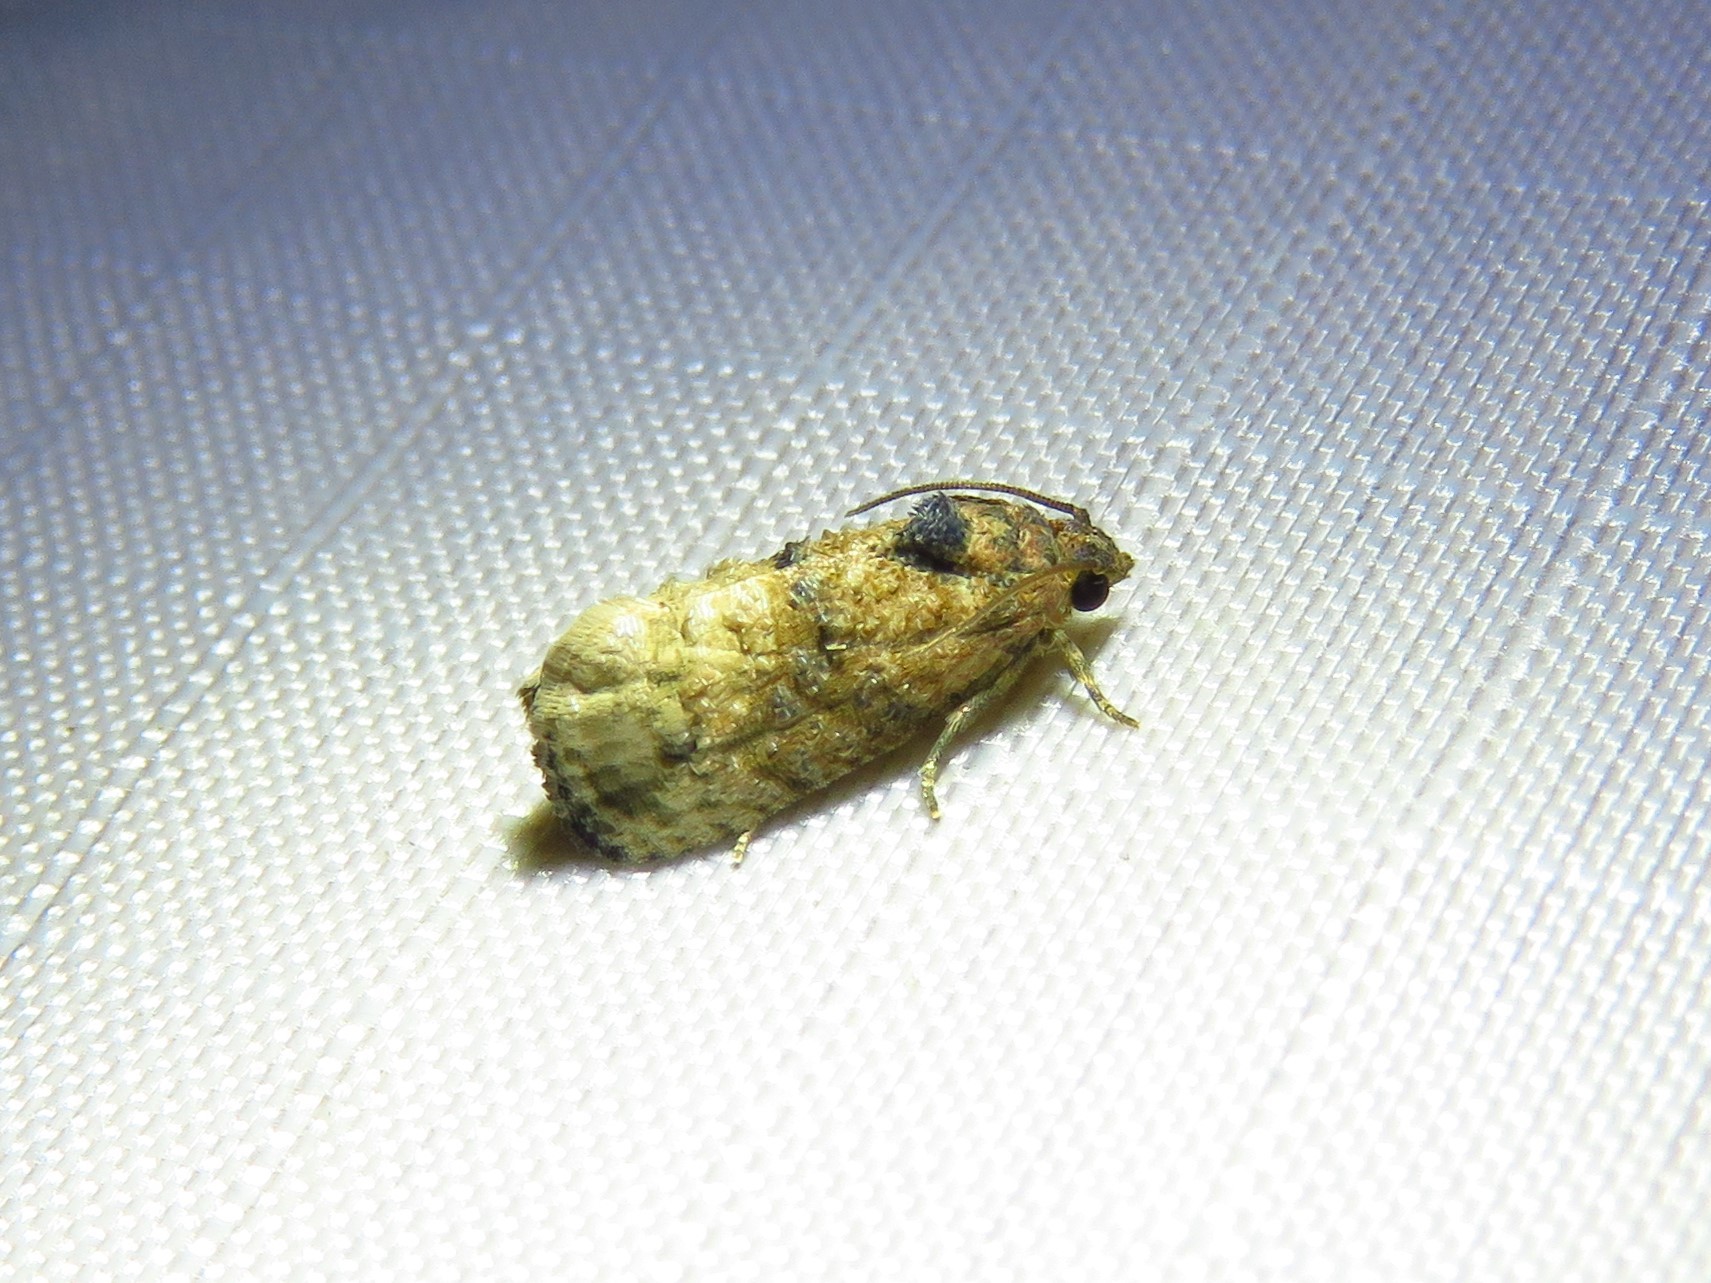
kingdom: Animalia
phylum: Arthropoda
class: Insecta
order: Lepidoptera
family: Tortricidae
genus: Ecdytolopha
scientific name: Ecdytolopha mana
